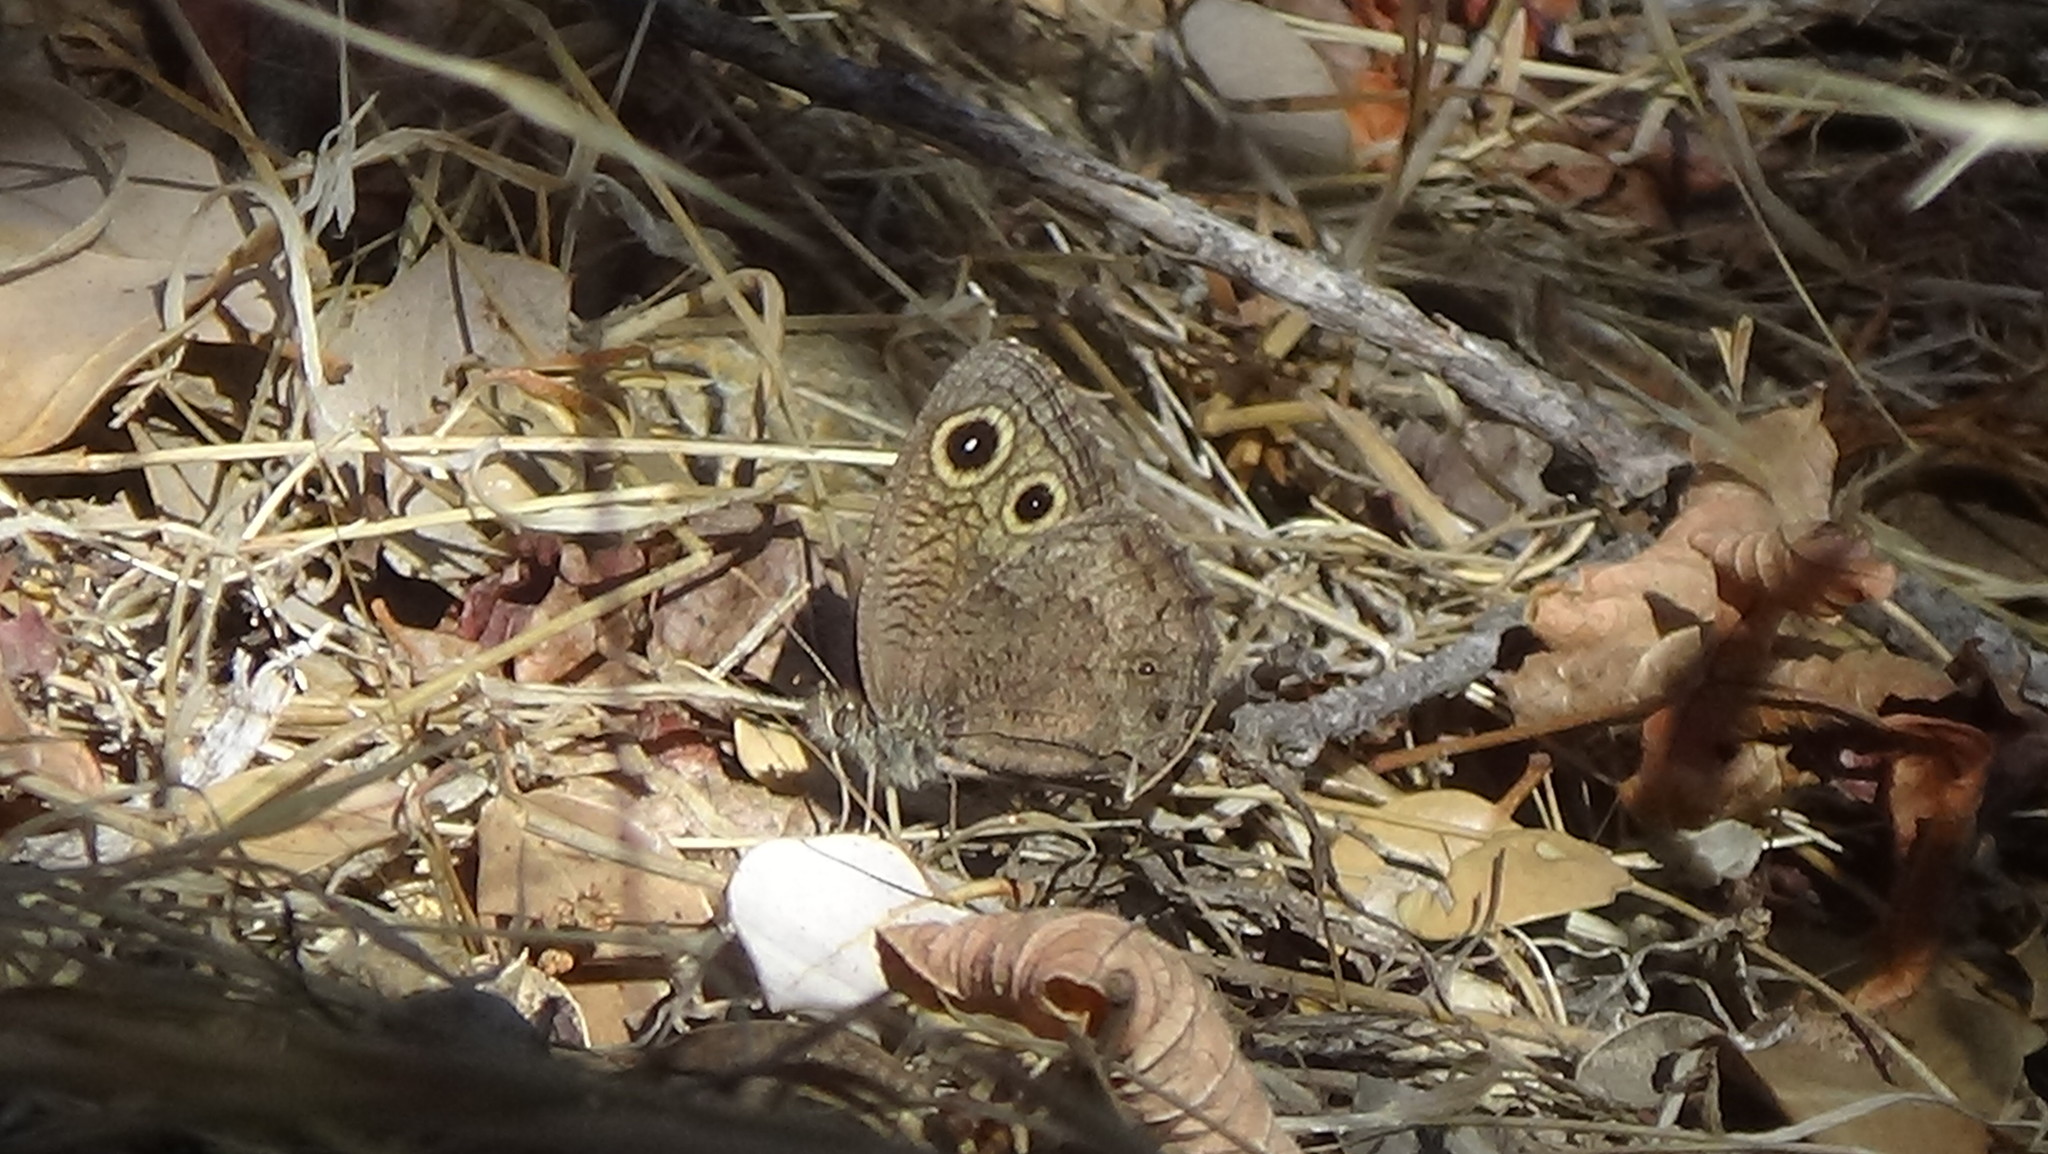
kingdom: Animalia
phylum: Arthropoda
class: Insecta
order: Lepidoptera
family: Nymphalidae
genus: Cercyonis
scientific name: Cercyonis sthenele
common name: Great basin wood-nymph
